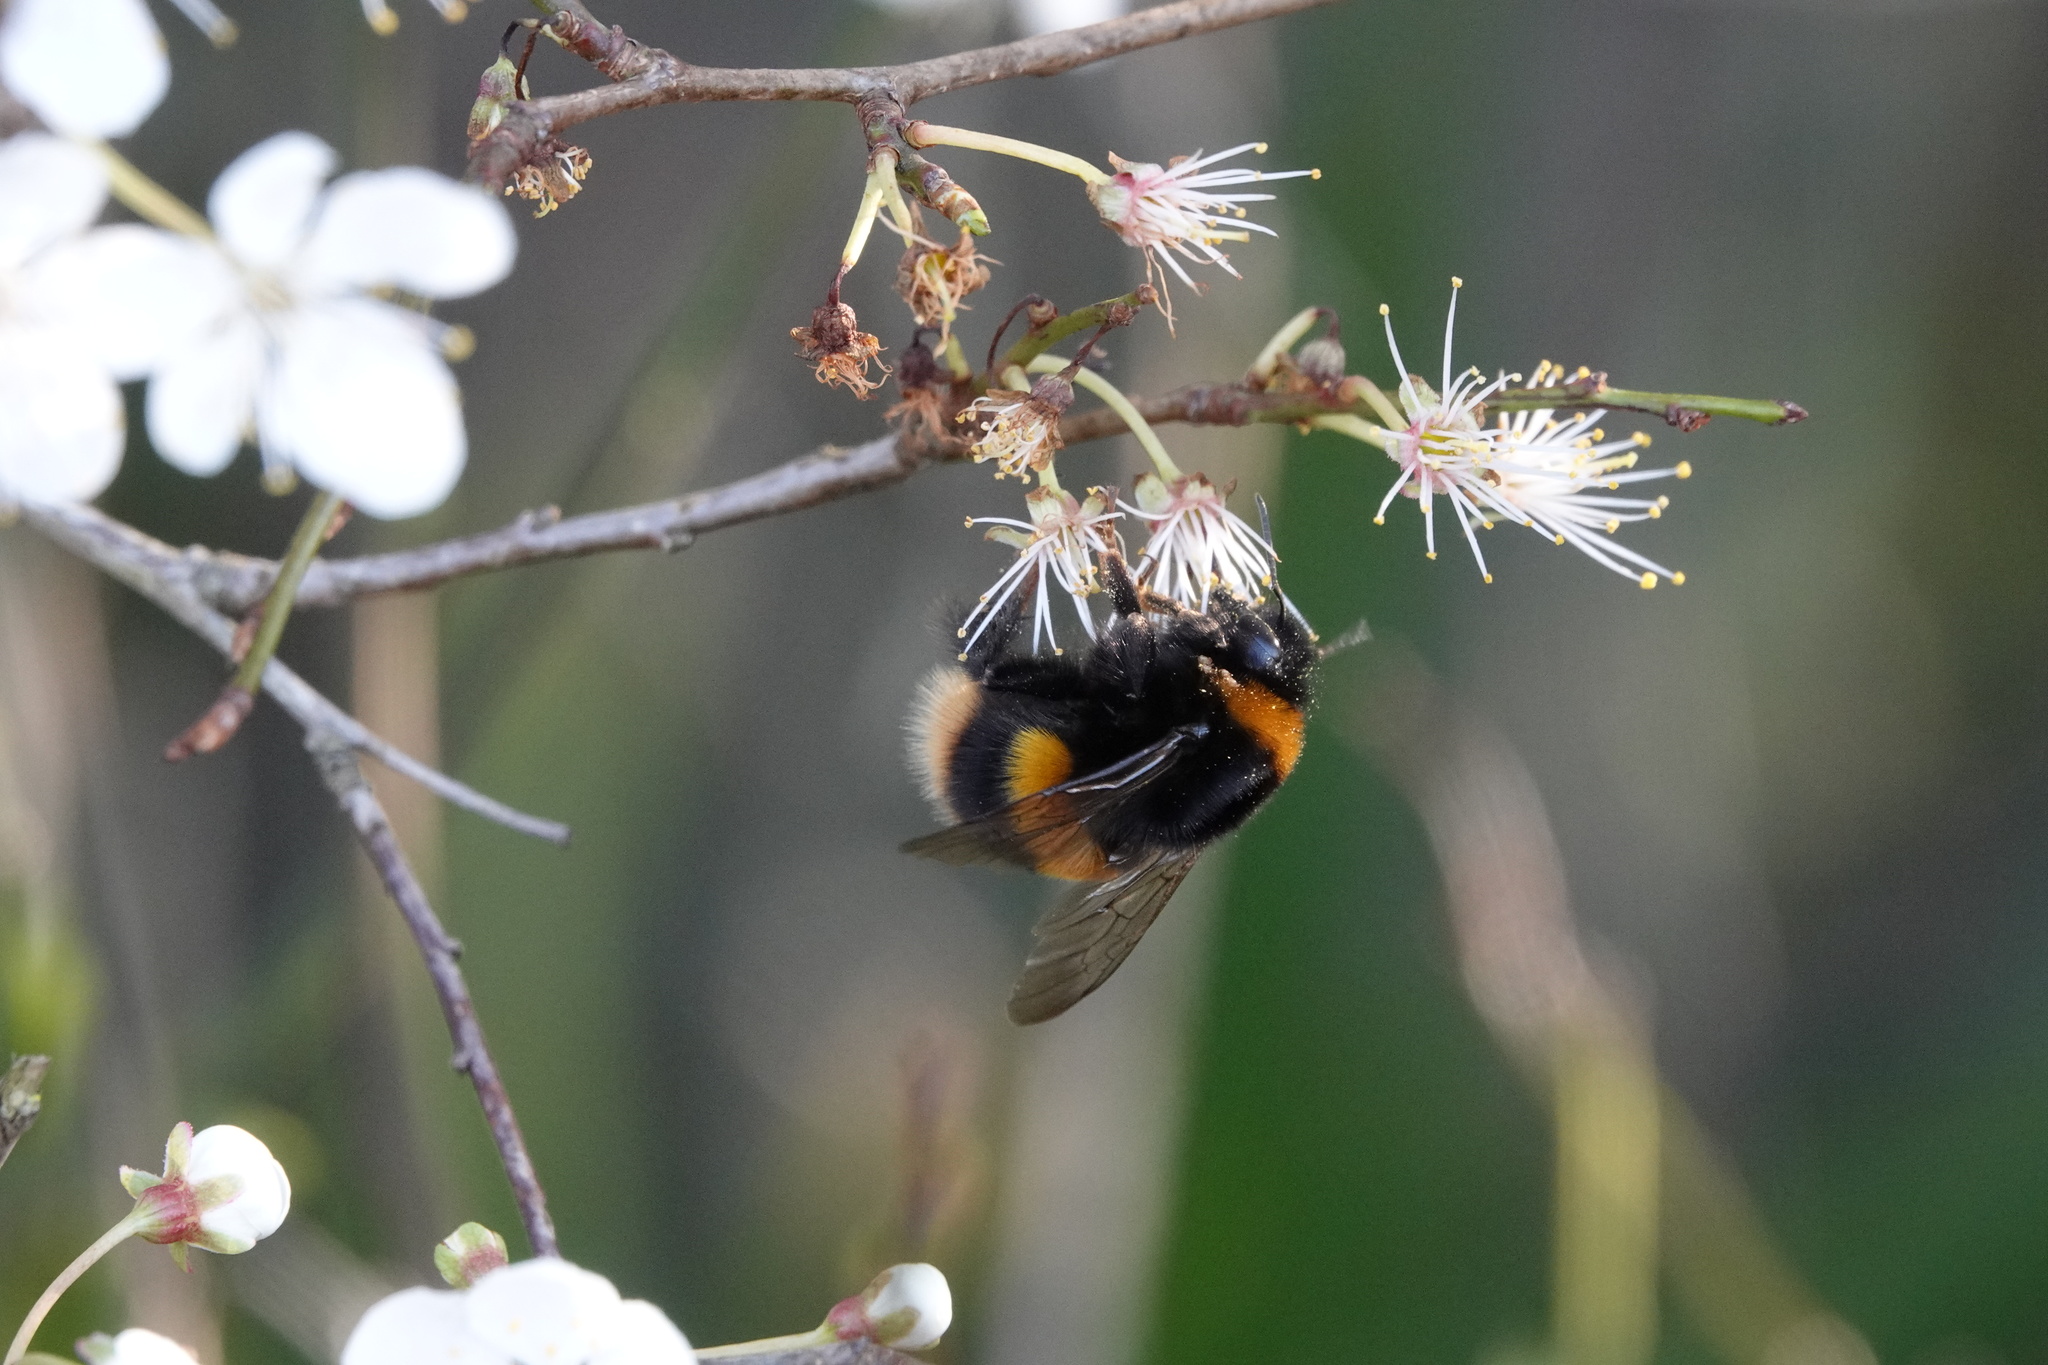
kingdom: Animalia
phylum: Arthropoda
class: Insecta
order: Hymenoptera
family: Apidae
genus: Bombus
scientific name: Bombus terrestris
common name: Buff-tailed bumblebee
